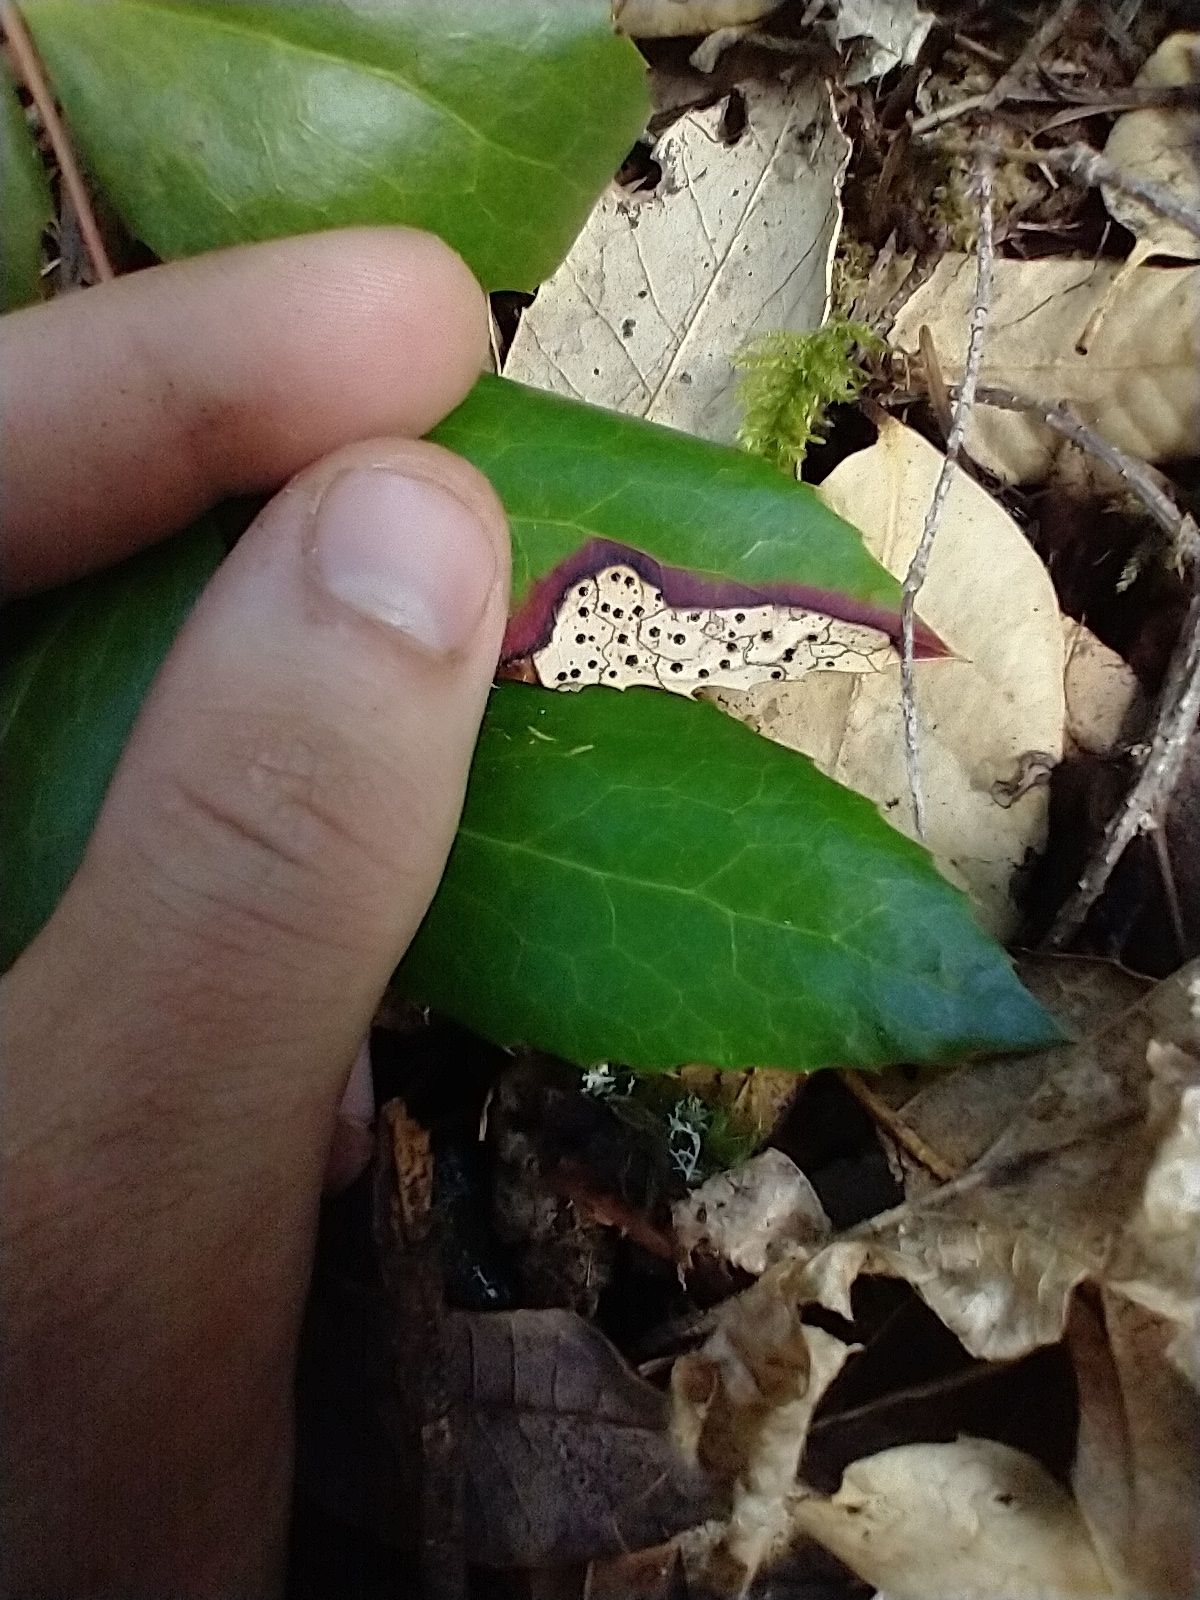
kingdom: Plantae
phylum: Tracheophyta
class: Magnoliopsida
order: Ranunculales
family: Berberidaceae
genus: Mahonia
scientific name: Mahonia nervosa
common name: Cascade oregon-grape
